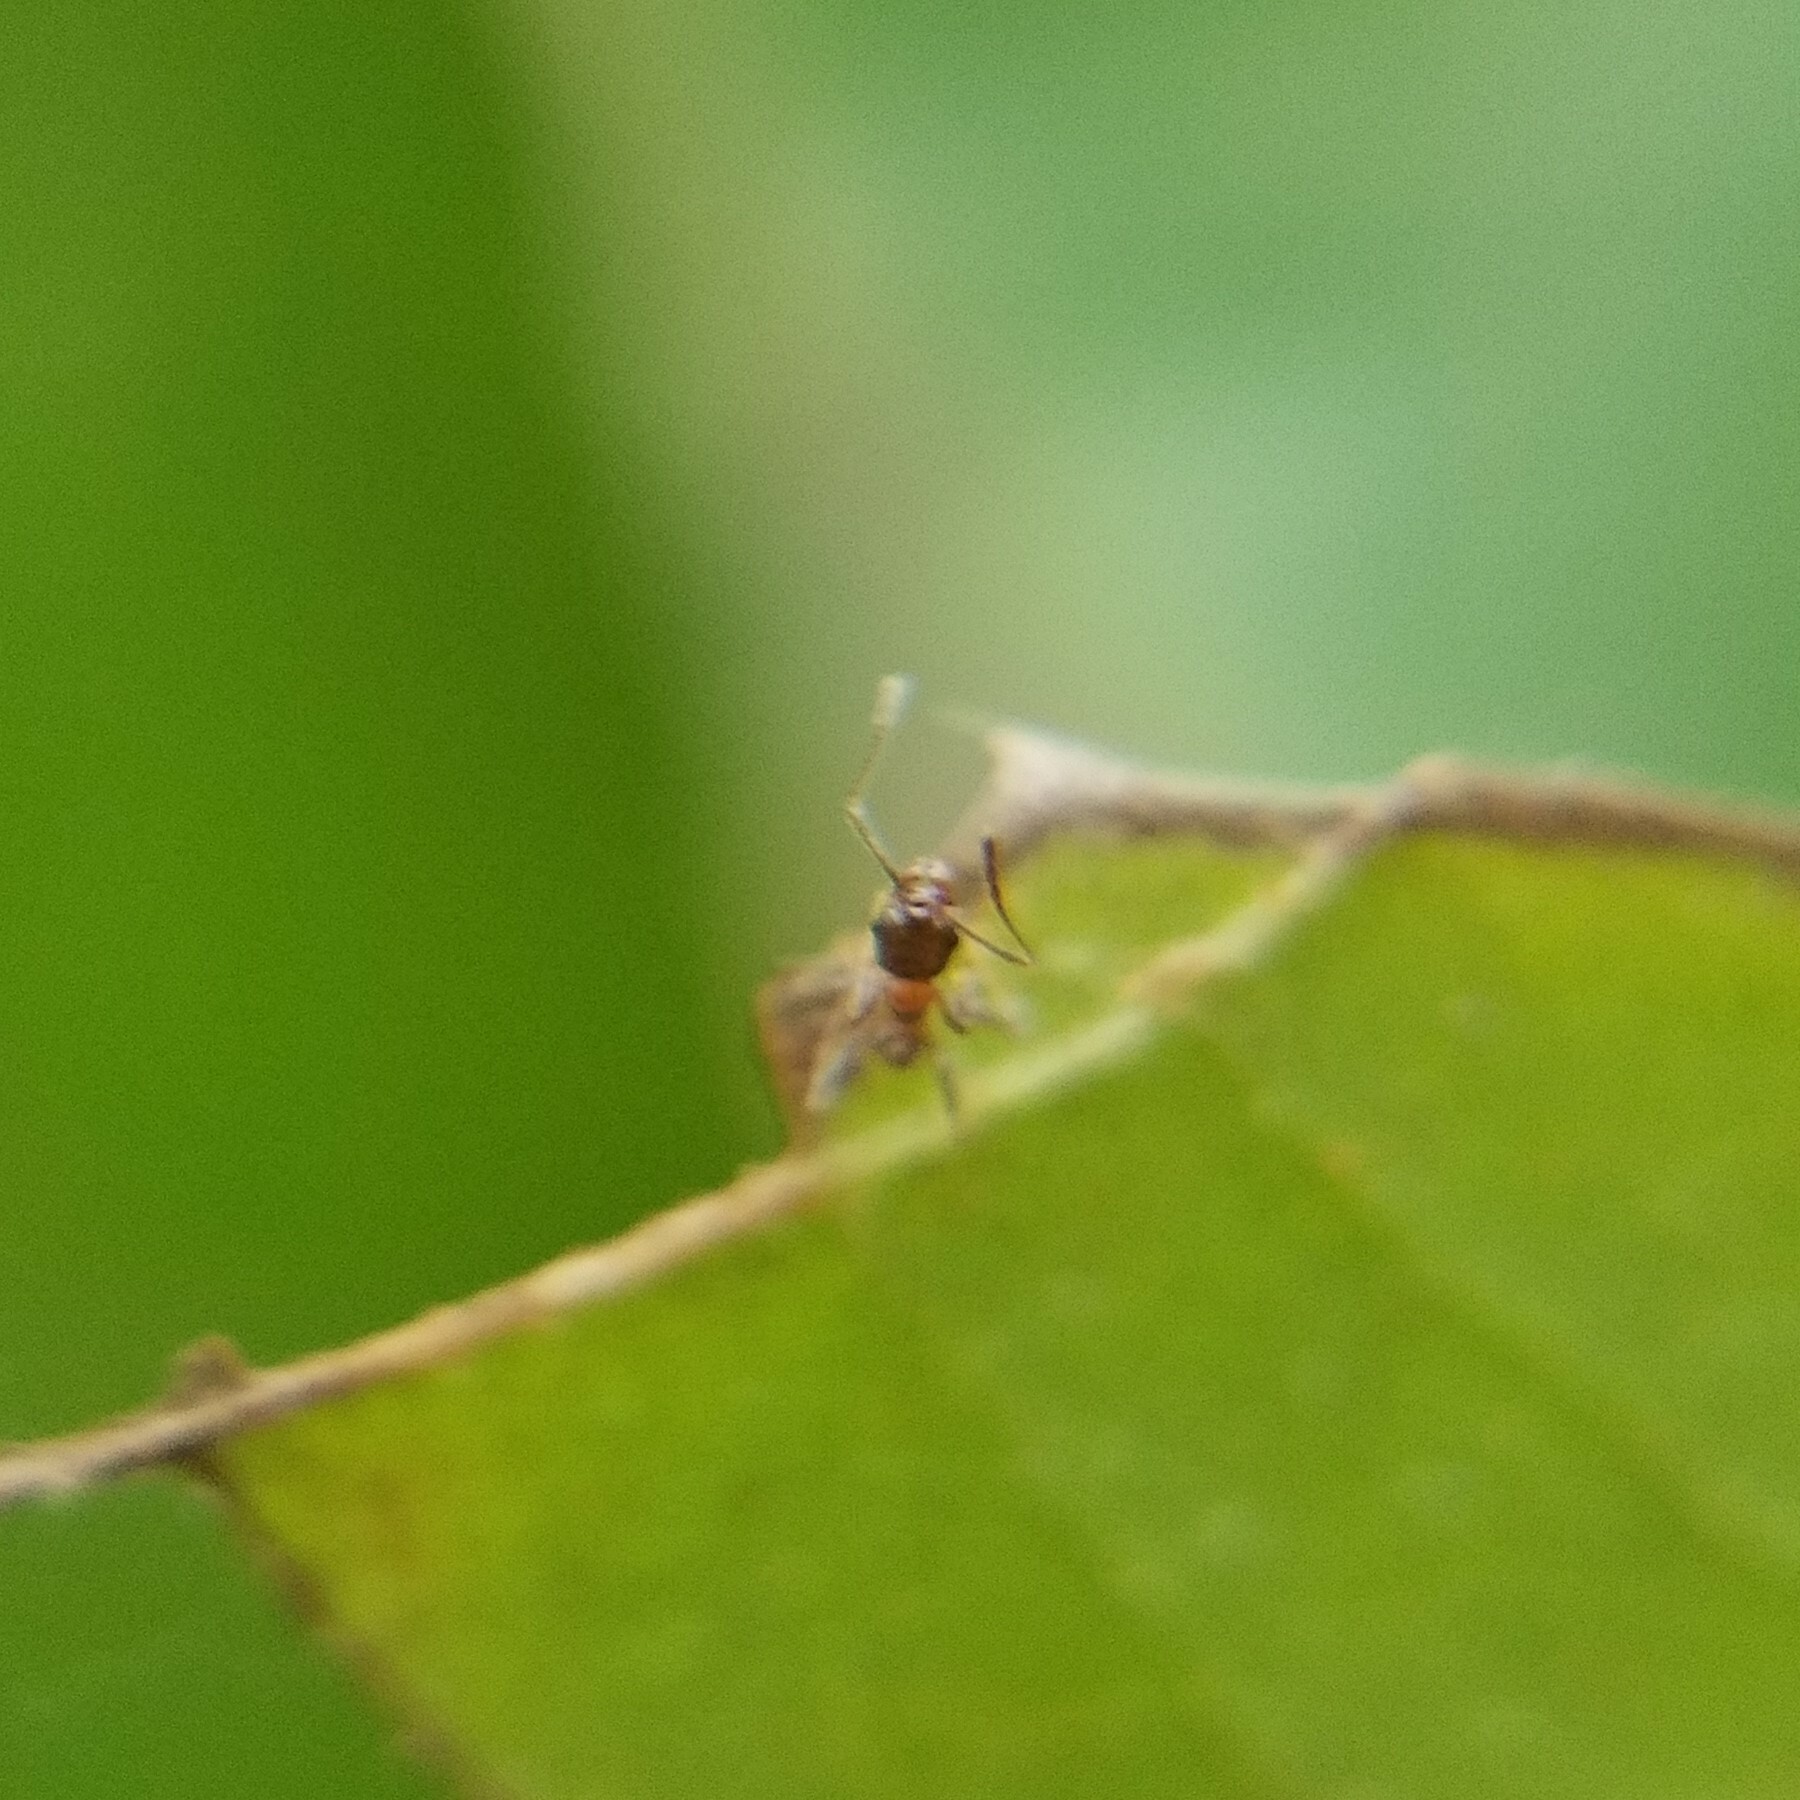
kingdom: Animalia
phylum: Arthropoda
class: Insecta
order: Hymenoptera
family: Formicidae
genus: Pheidole
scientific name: Pheidole dentata
